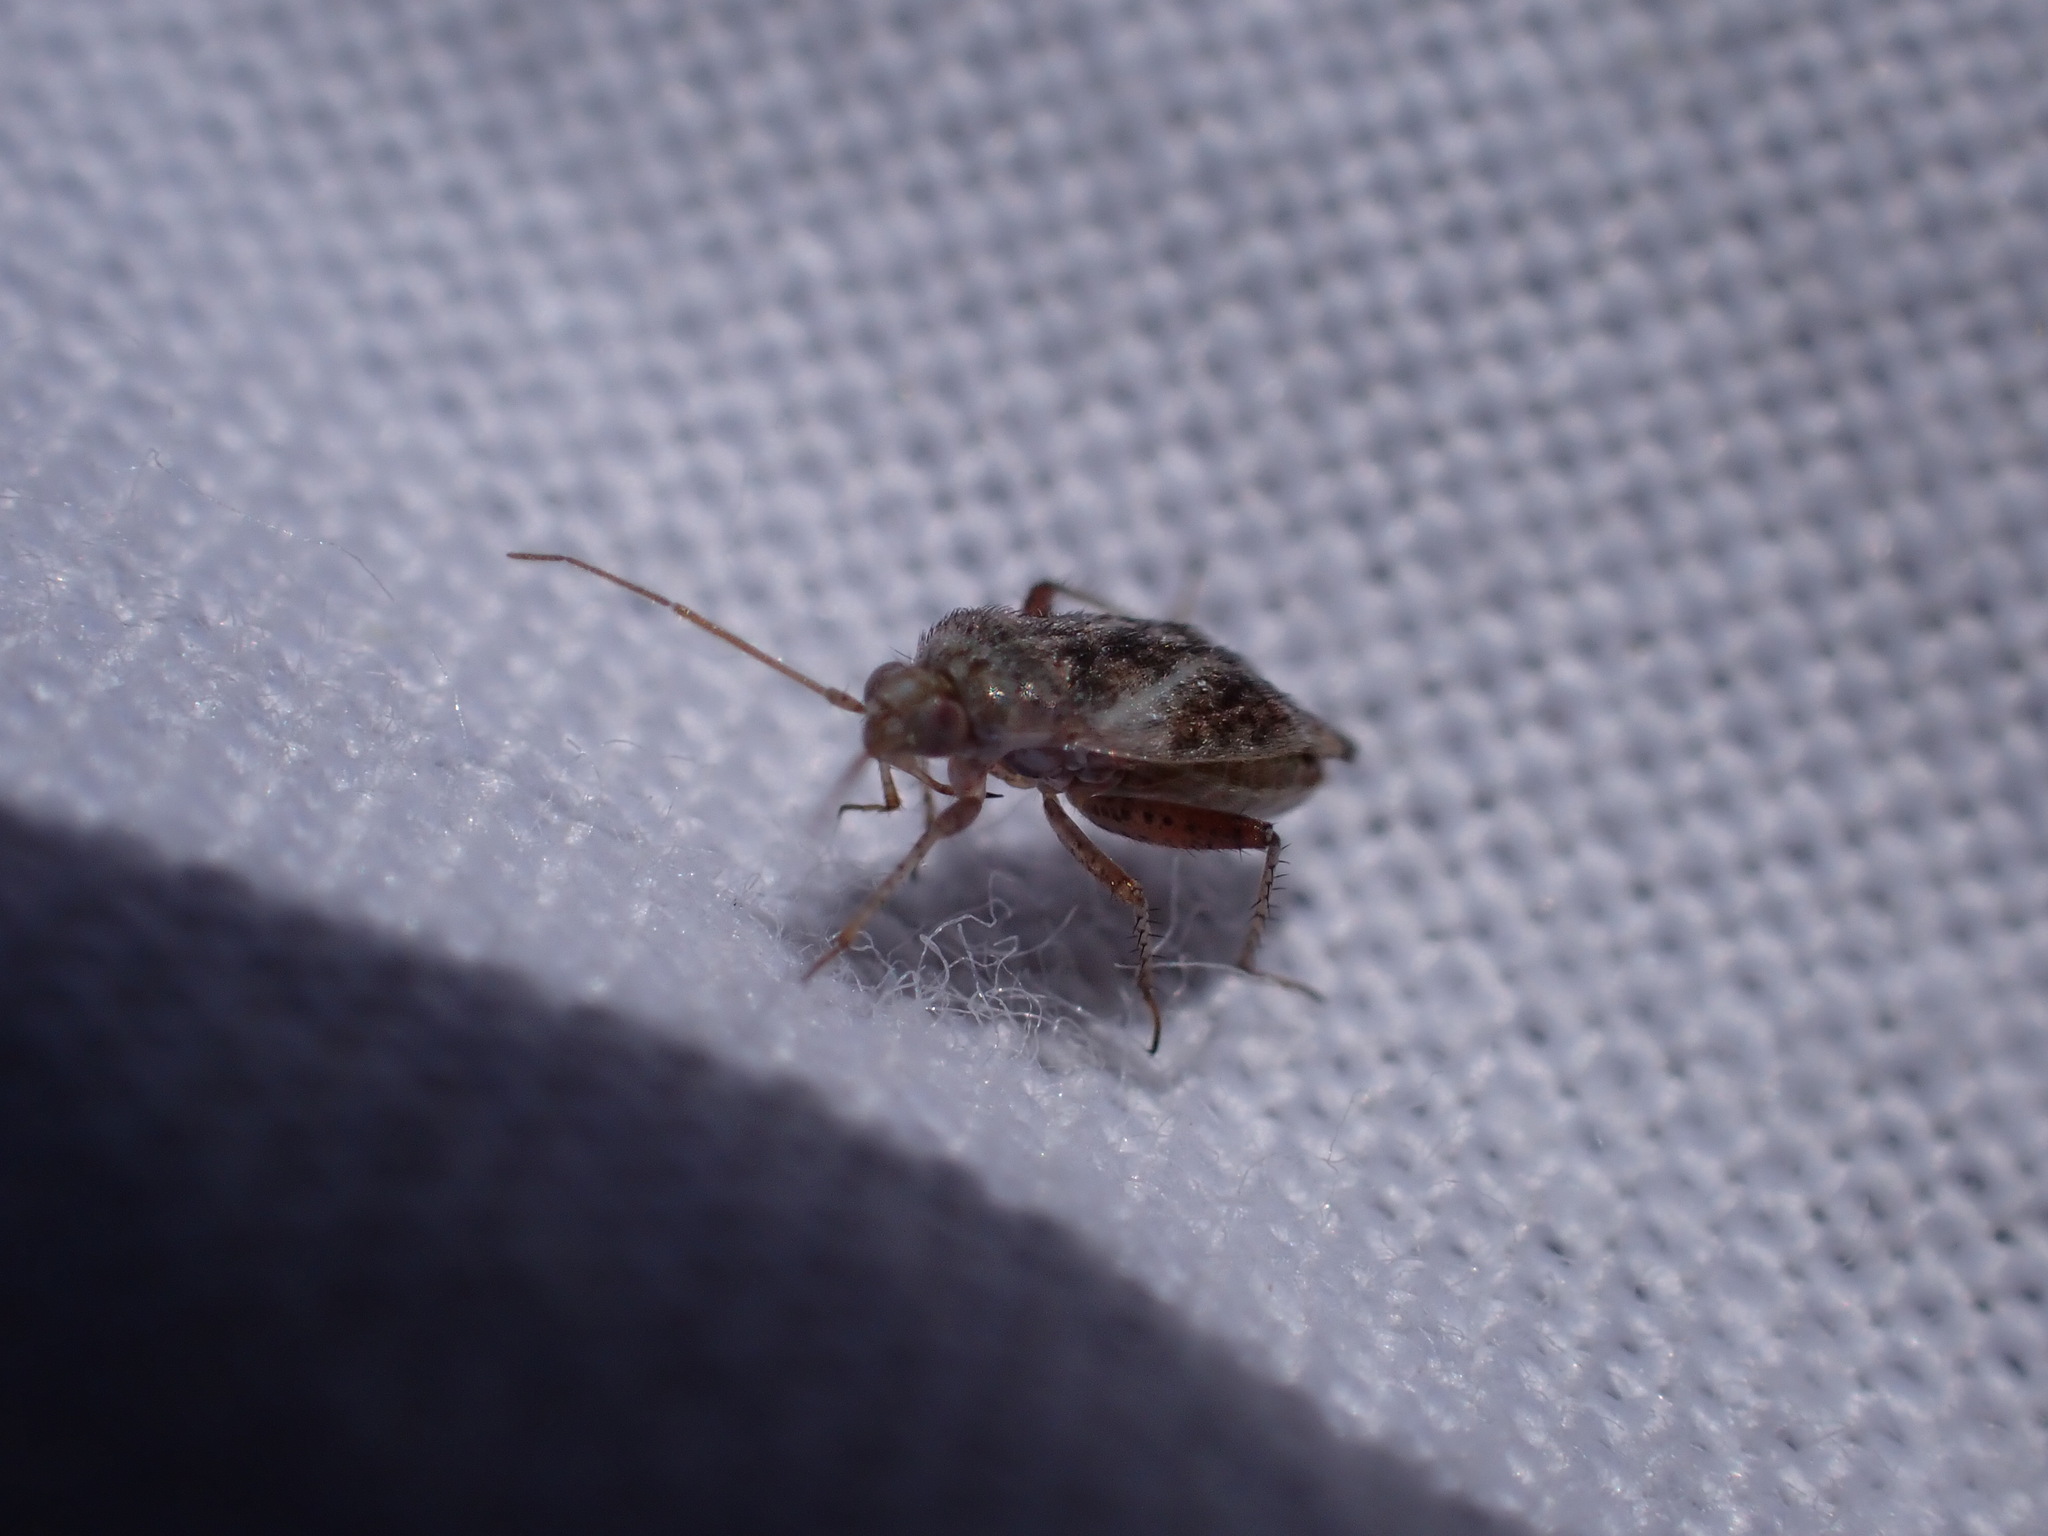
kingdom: Animalia
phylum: Arthropoda
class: Insecta
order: Hemiptera
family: Miridae
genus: Compsidolon
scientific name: Compsidolon crotchi
